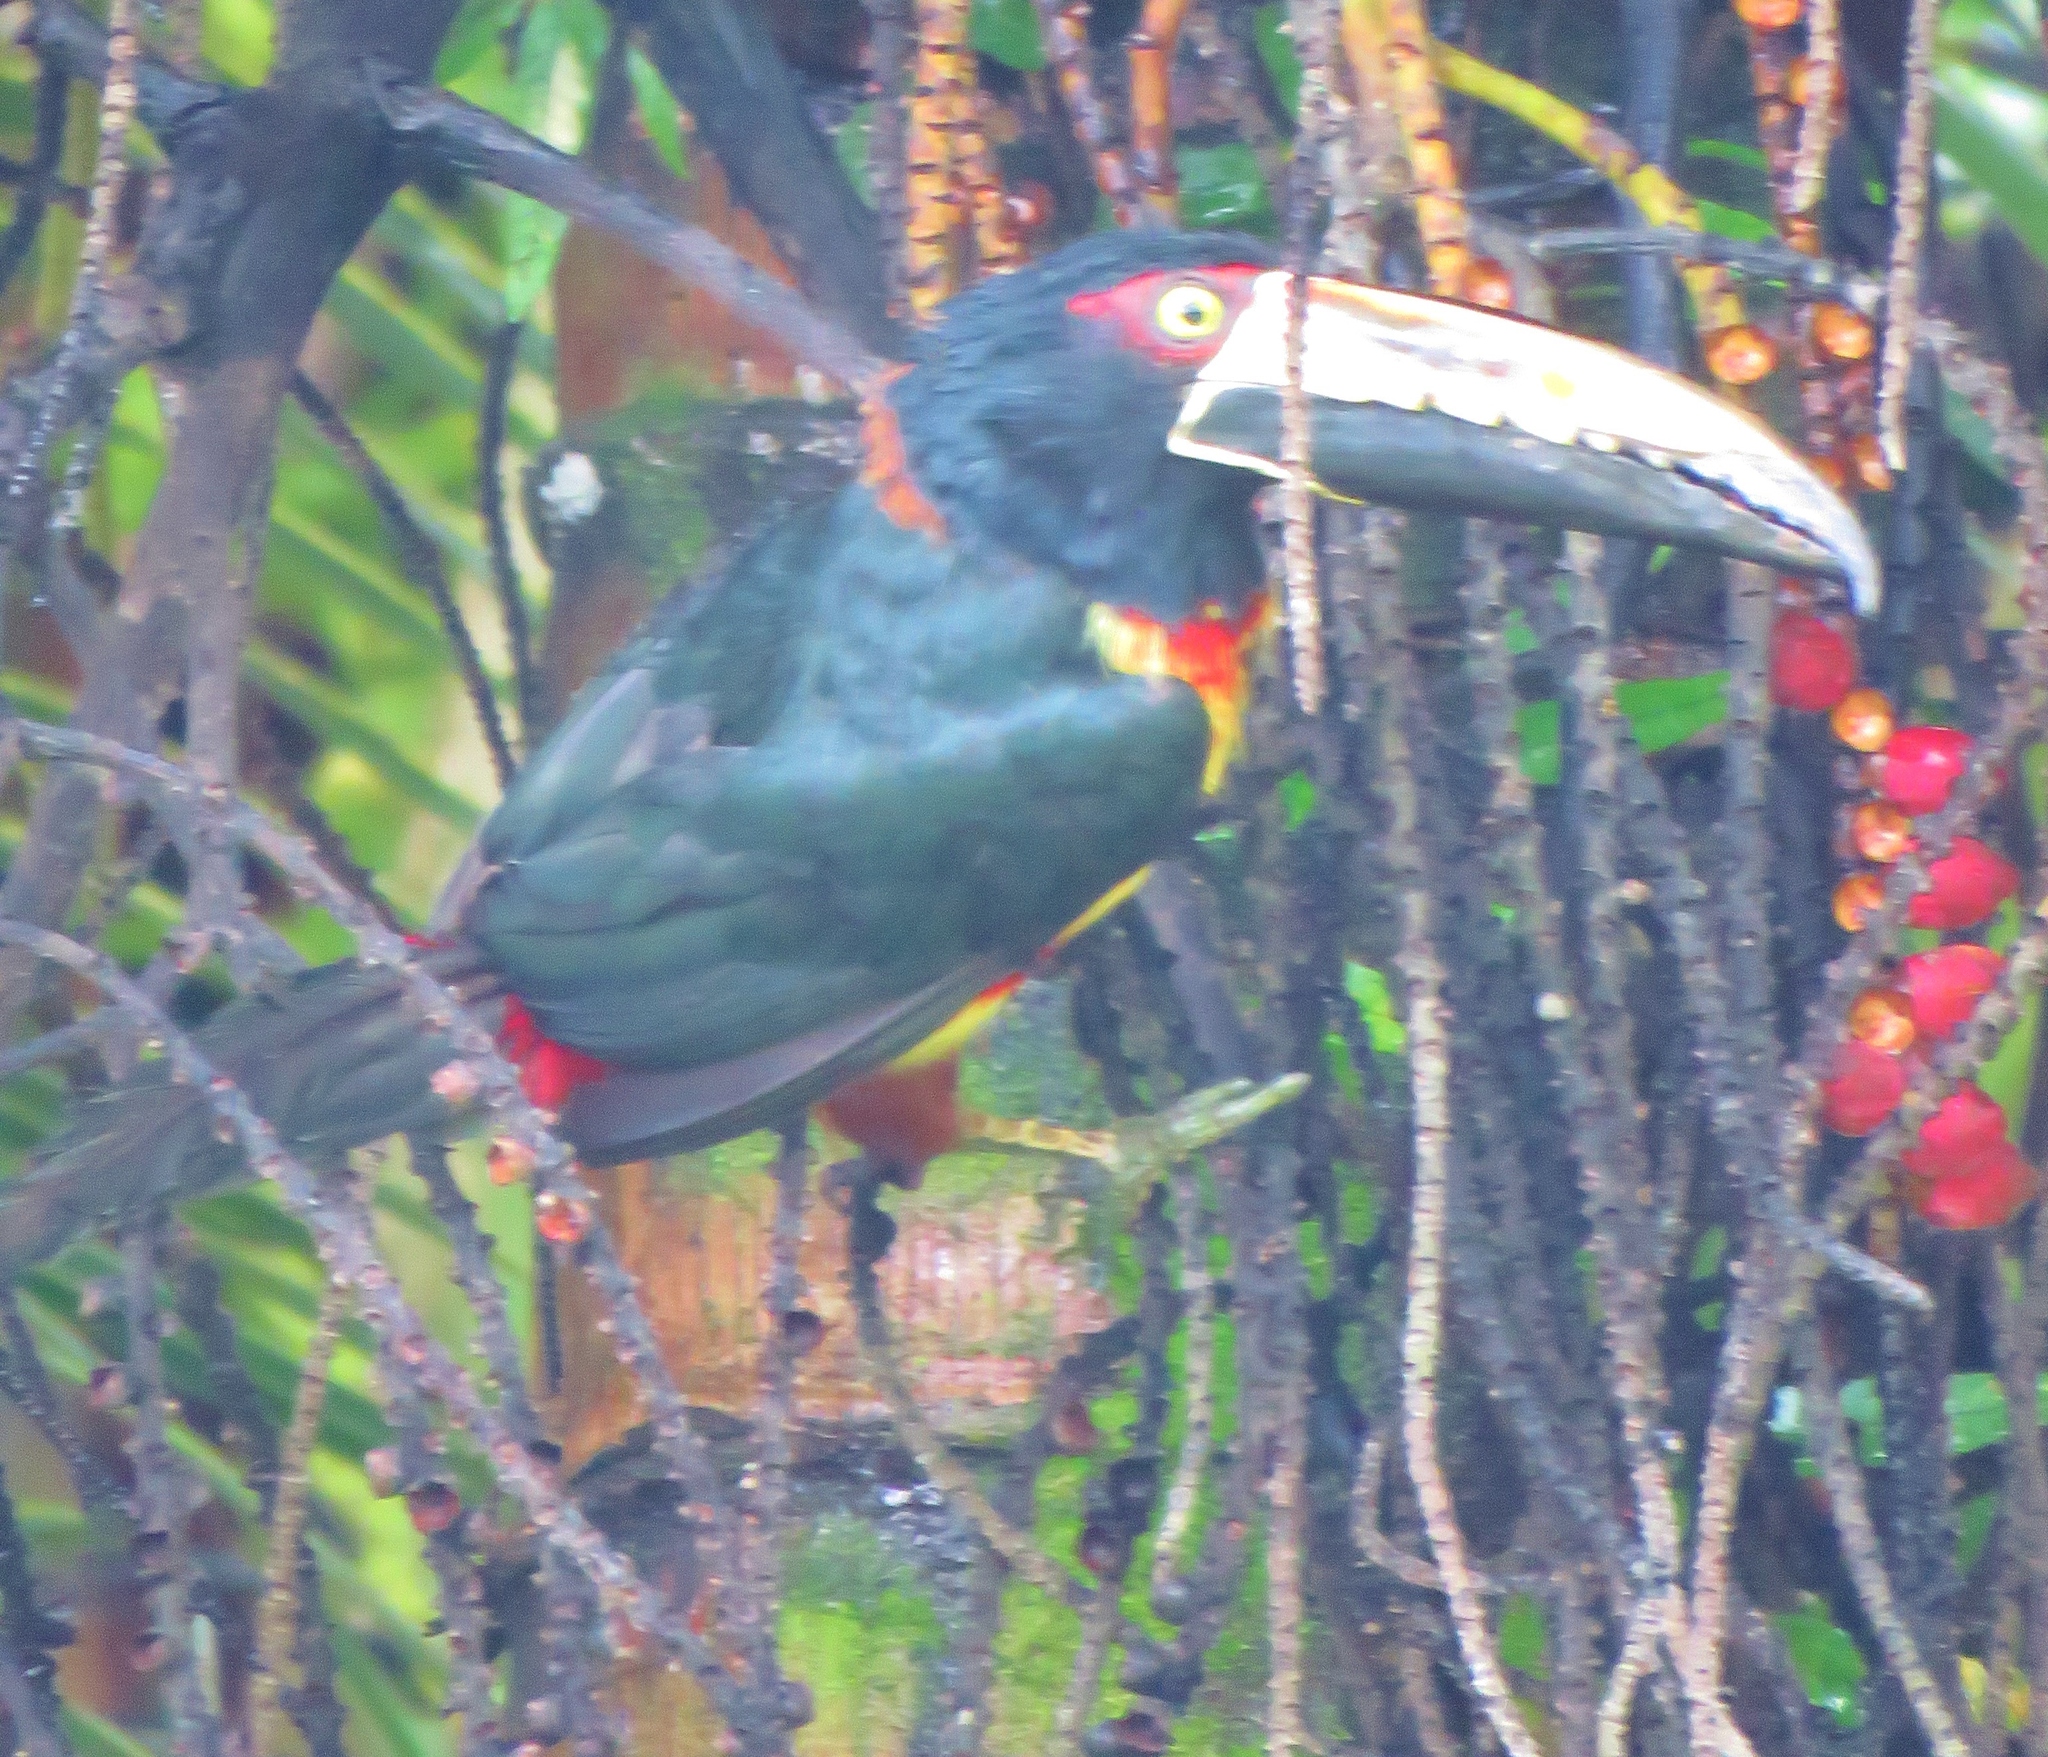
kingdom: Animalia
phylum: Chordata
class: Aves
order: Piciformes
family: Ramphastidae
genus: Pteroglossus
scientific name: Pteroglossus torquatus
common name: Collared aracari
